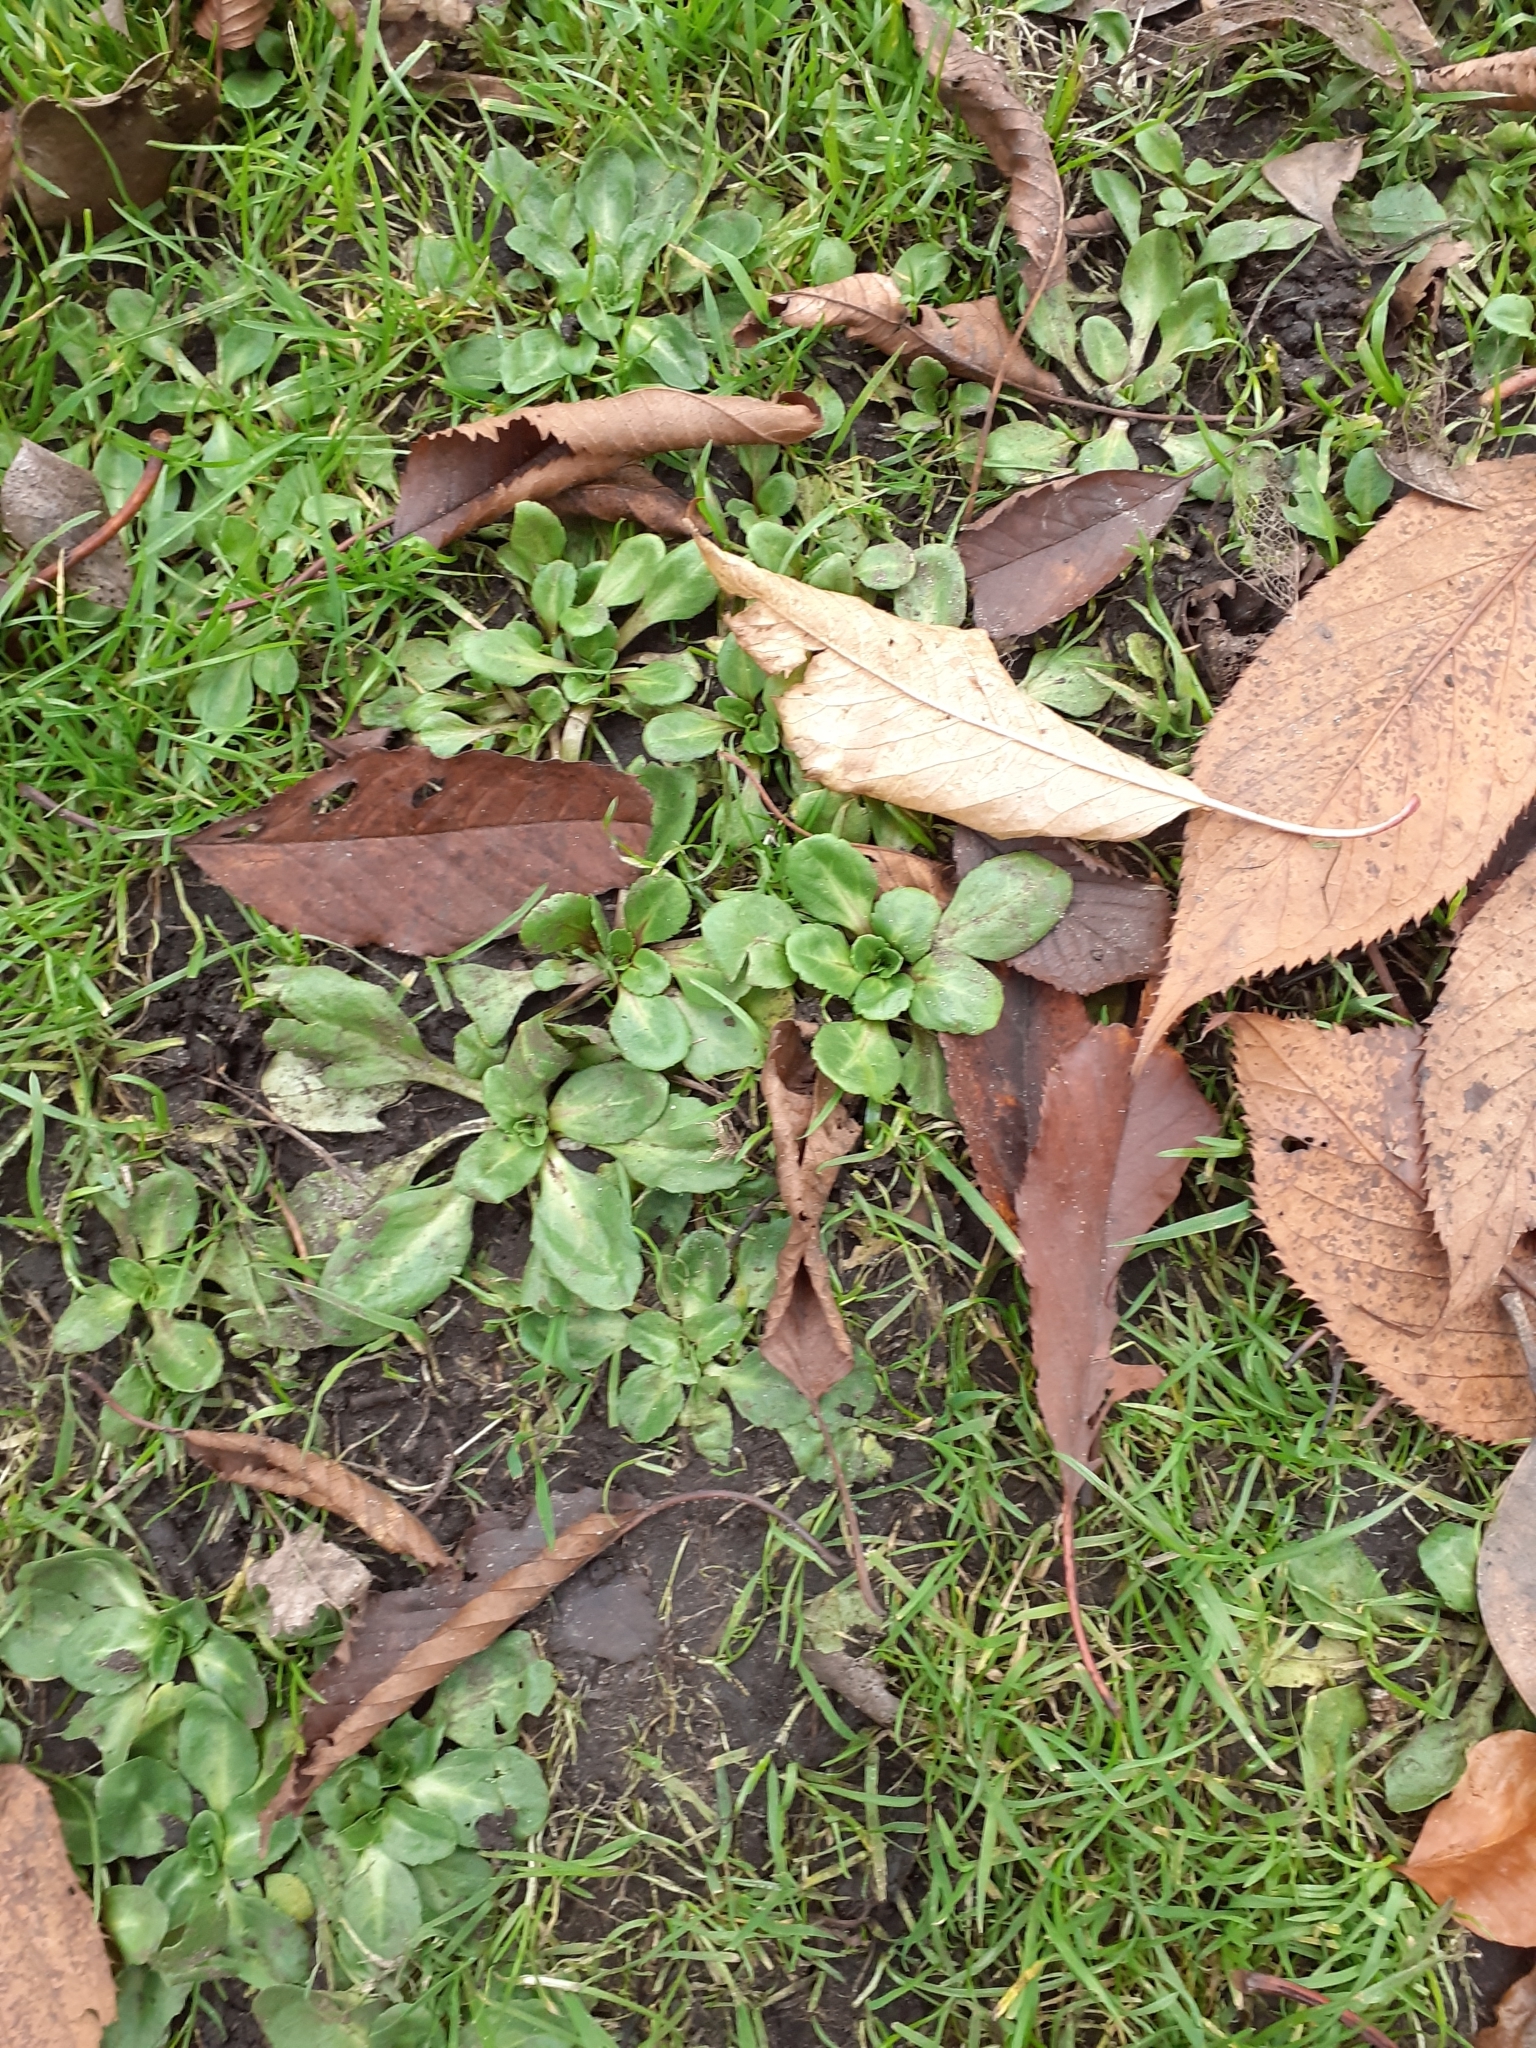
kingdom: Plantae
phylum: Tracheophyta
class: Magnoliopsida
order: Asterales
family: Asteraceae
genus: Bellis
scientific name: Bellis perennis
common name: Lawndaisy
